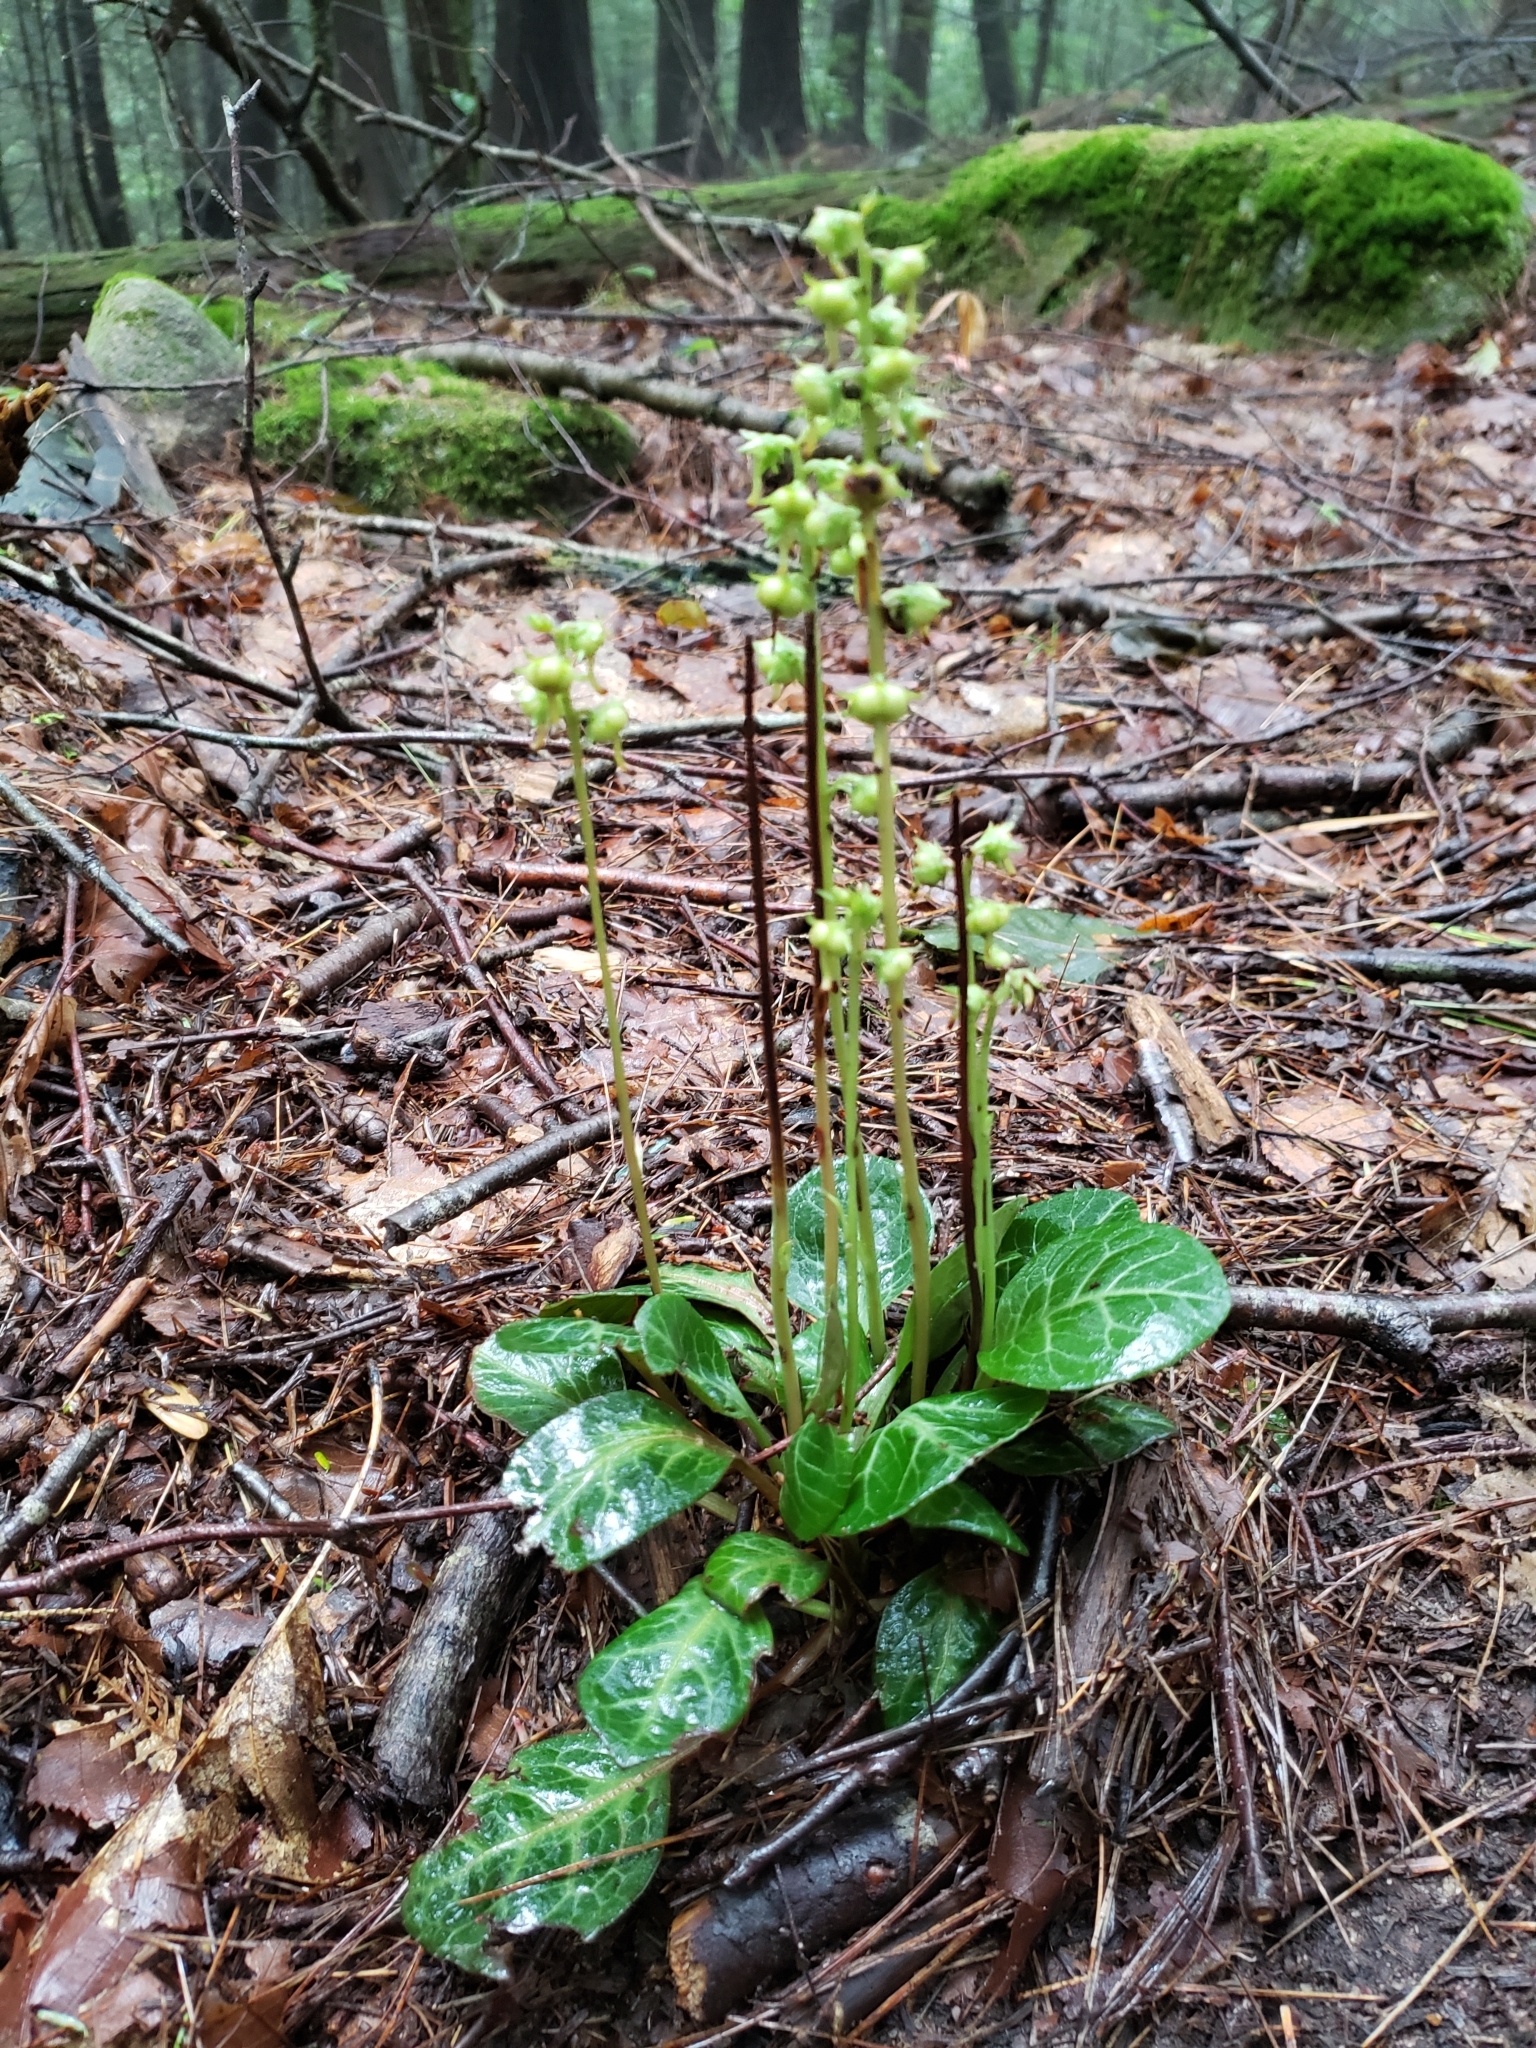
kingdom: Plantae
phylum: Tracheophyta
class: Magnoliopsida
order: Ericales
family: Ericaceae
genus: Pyrola
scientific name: Pyrola americana
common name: American wintergreen
